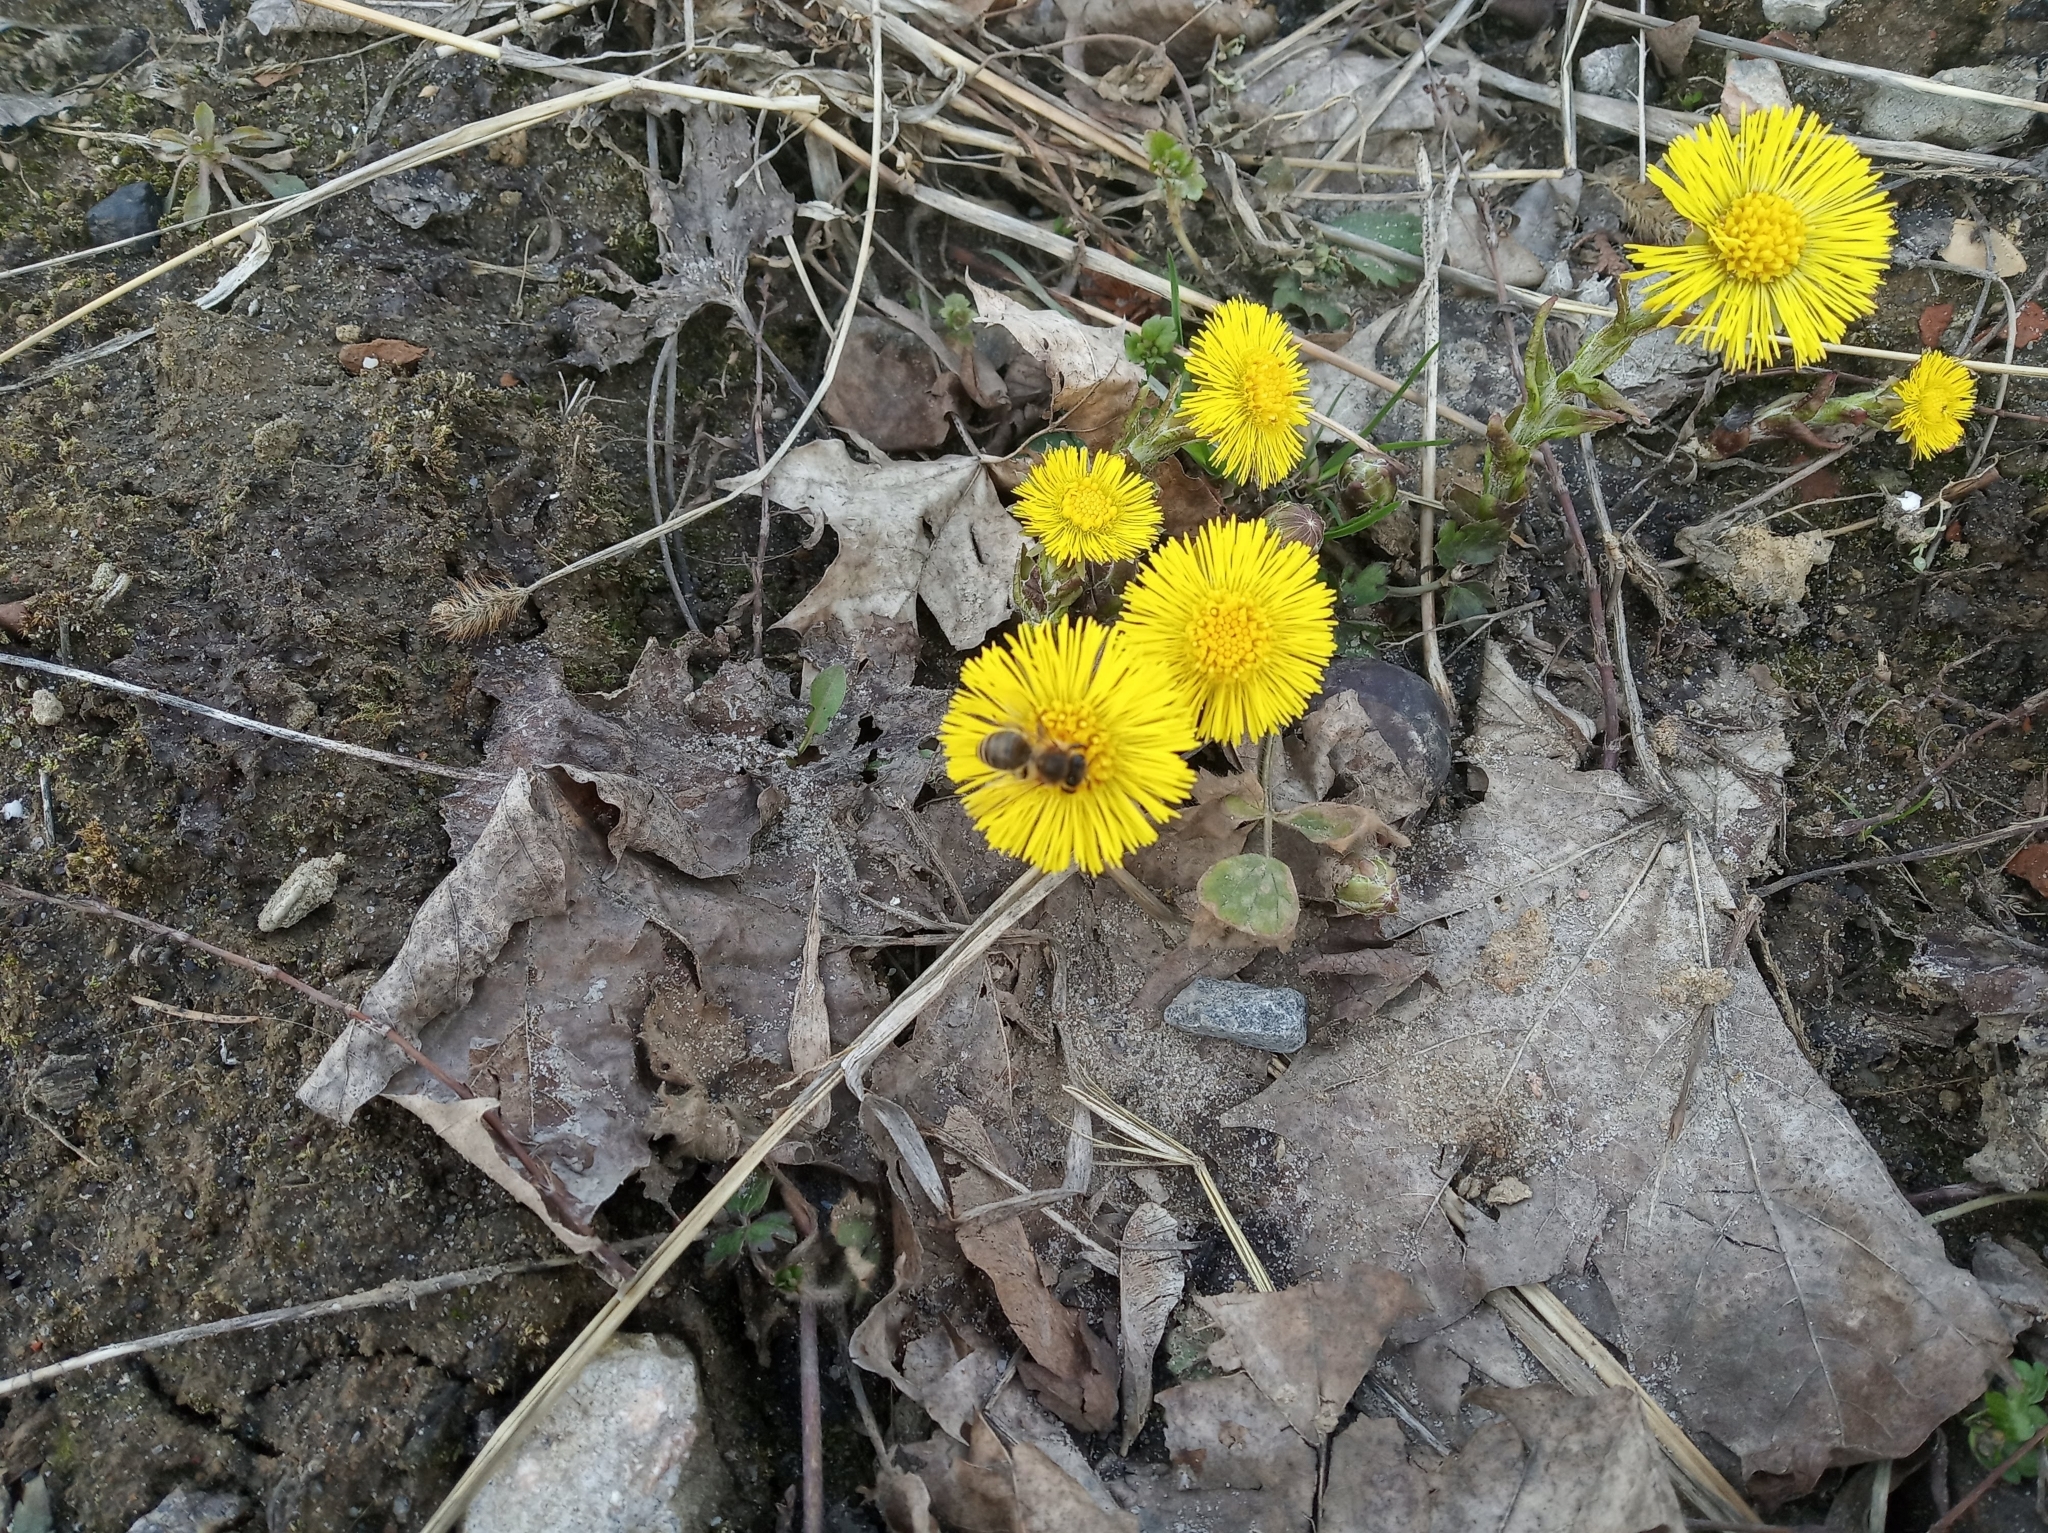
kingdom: Plantae
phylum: Tracheophyta
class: Magnoliopsida
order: Asterales
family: Asteraceae
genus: Tussilago
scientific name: Tussilago farfara
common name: Coltsfoot
